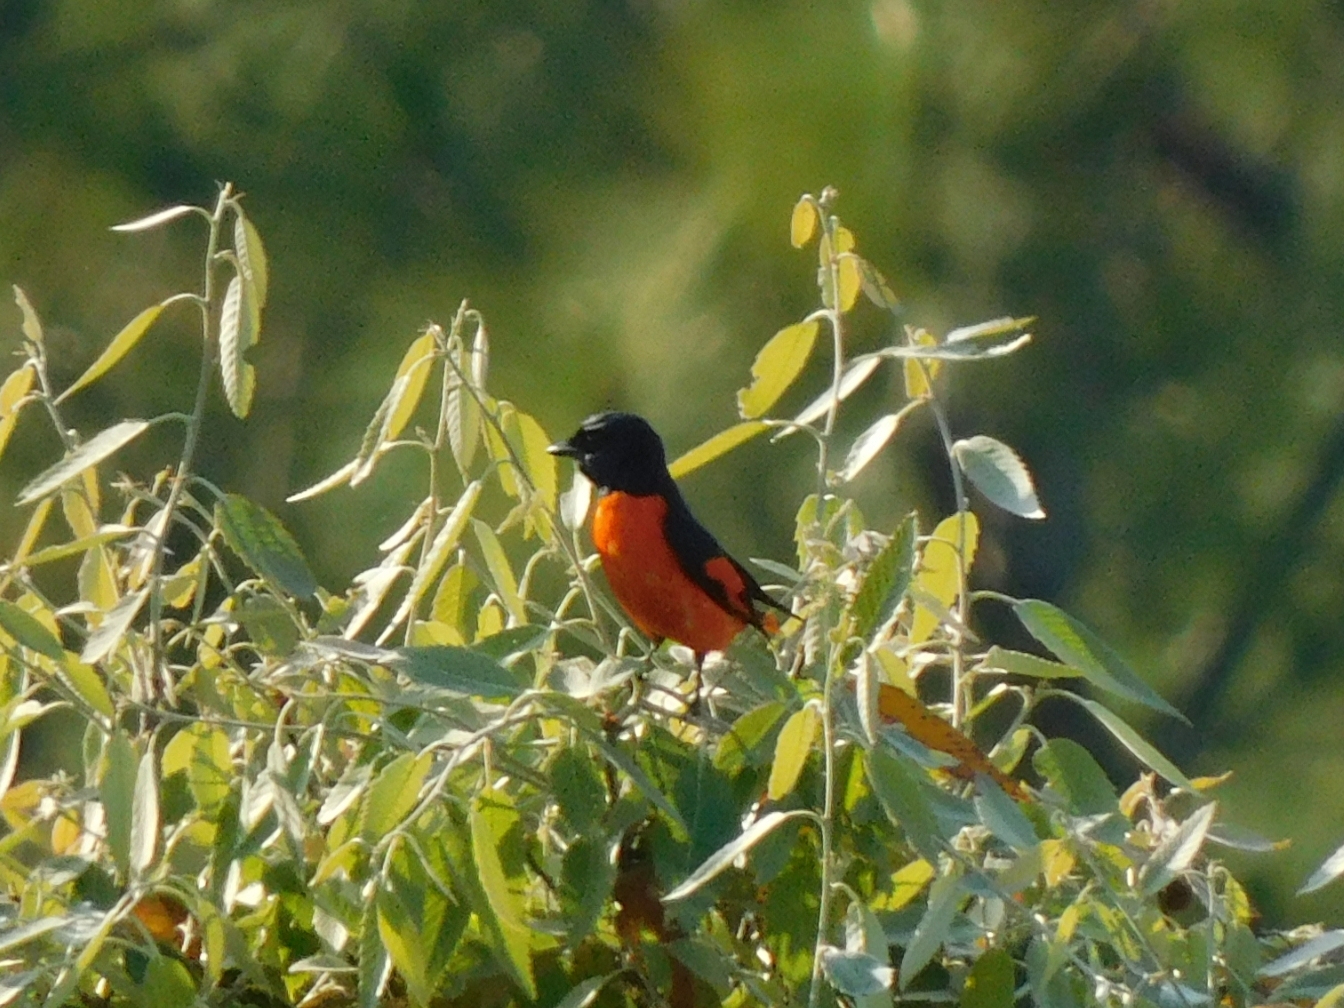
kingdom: Animalia
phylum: Chordata
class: Aves
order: Passeriformes
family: Campephagidae
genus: Pericrocotus
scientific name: Pericrocotus speciosus
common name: Scarlet minivet
